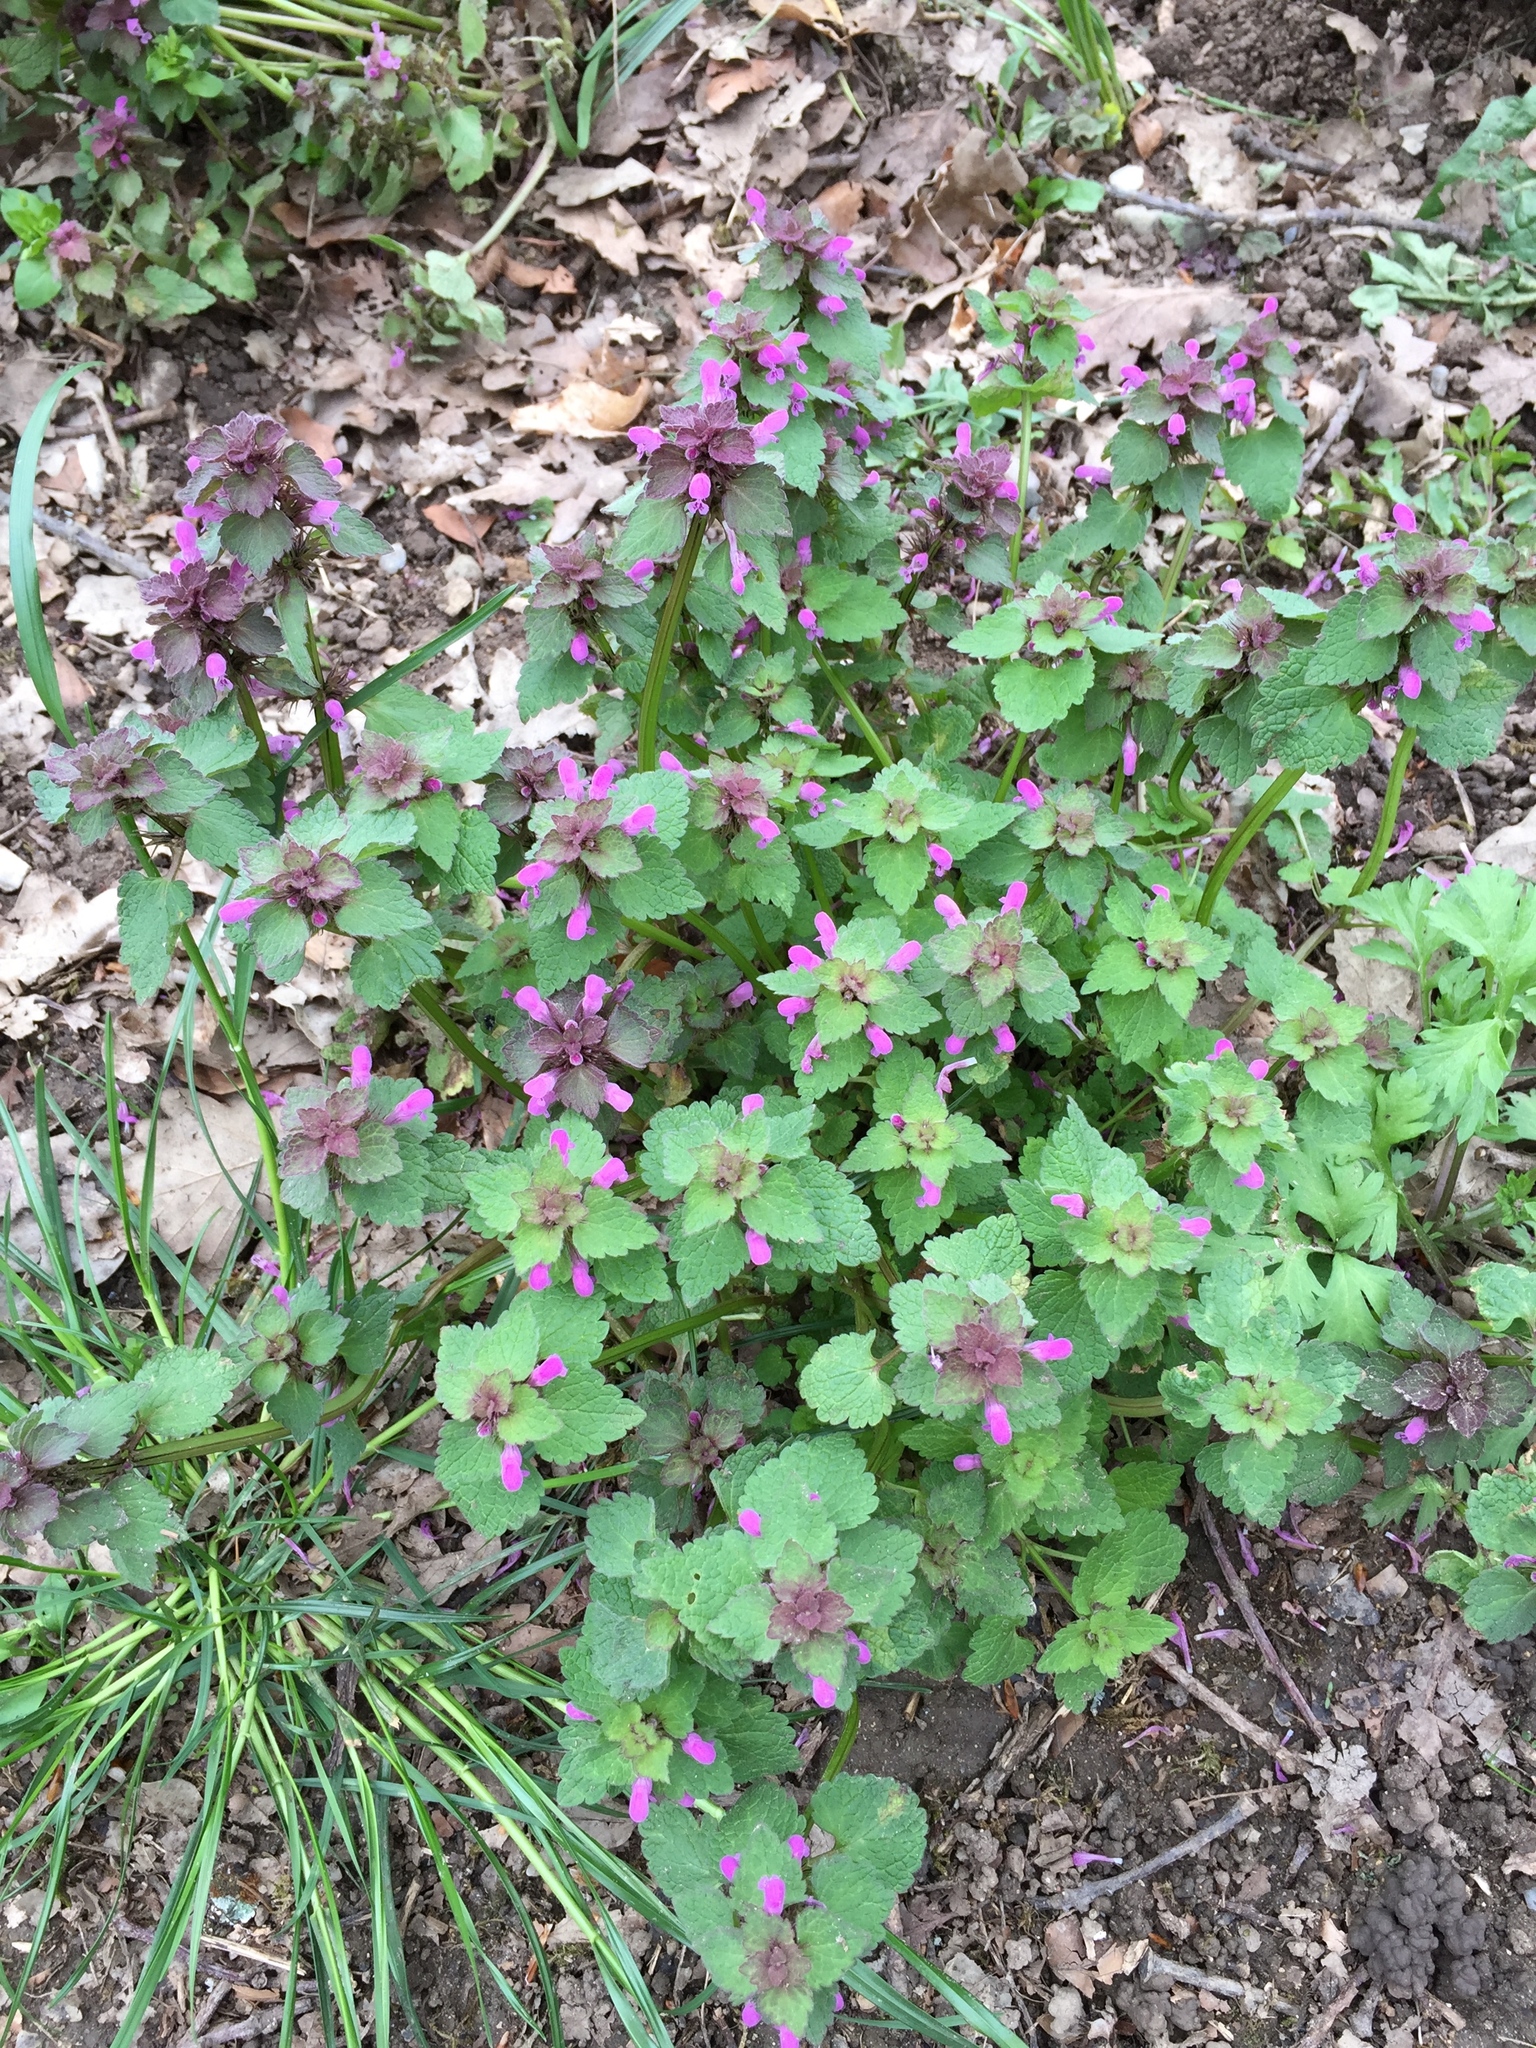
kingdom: Plantae
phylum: Tracheophyta
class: Magnoliopsida
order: Lamiales
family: Lamiaceae
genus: Lamium
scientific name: Lamium purpureum
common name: Red dead-nettle
